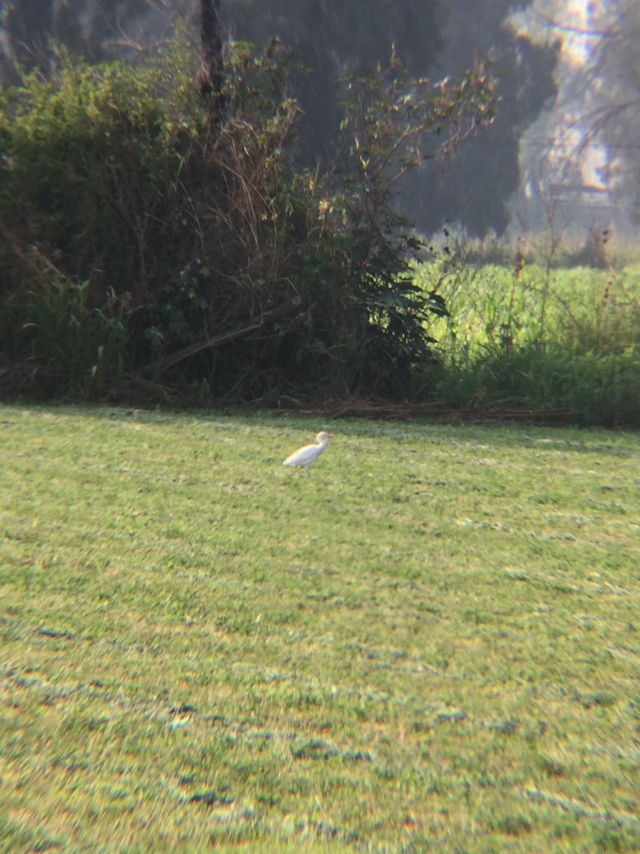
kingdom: Animalia
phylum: Chordata
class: Aves
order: Pelecaniformes
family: Ardeidae
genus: Bubulcus
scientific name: Bubulcus ibis
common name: Cattle egret
